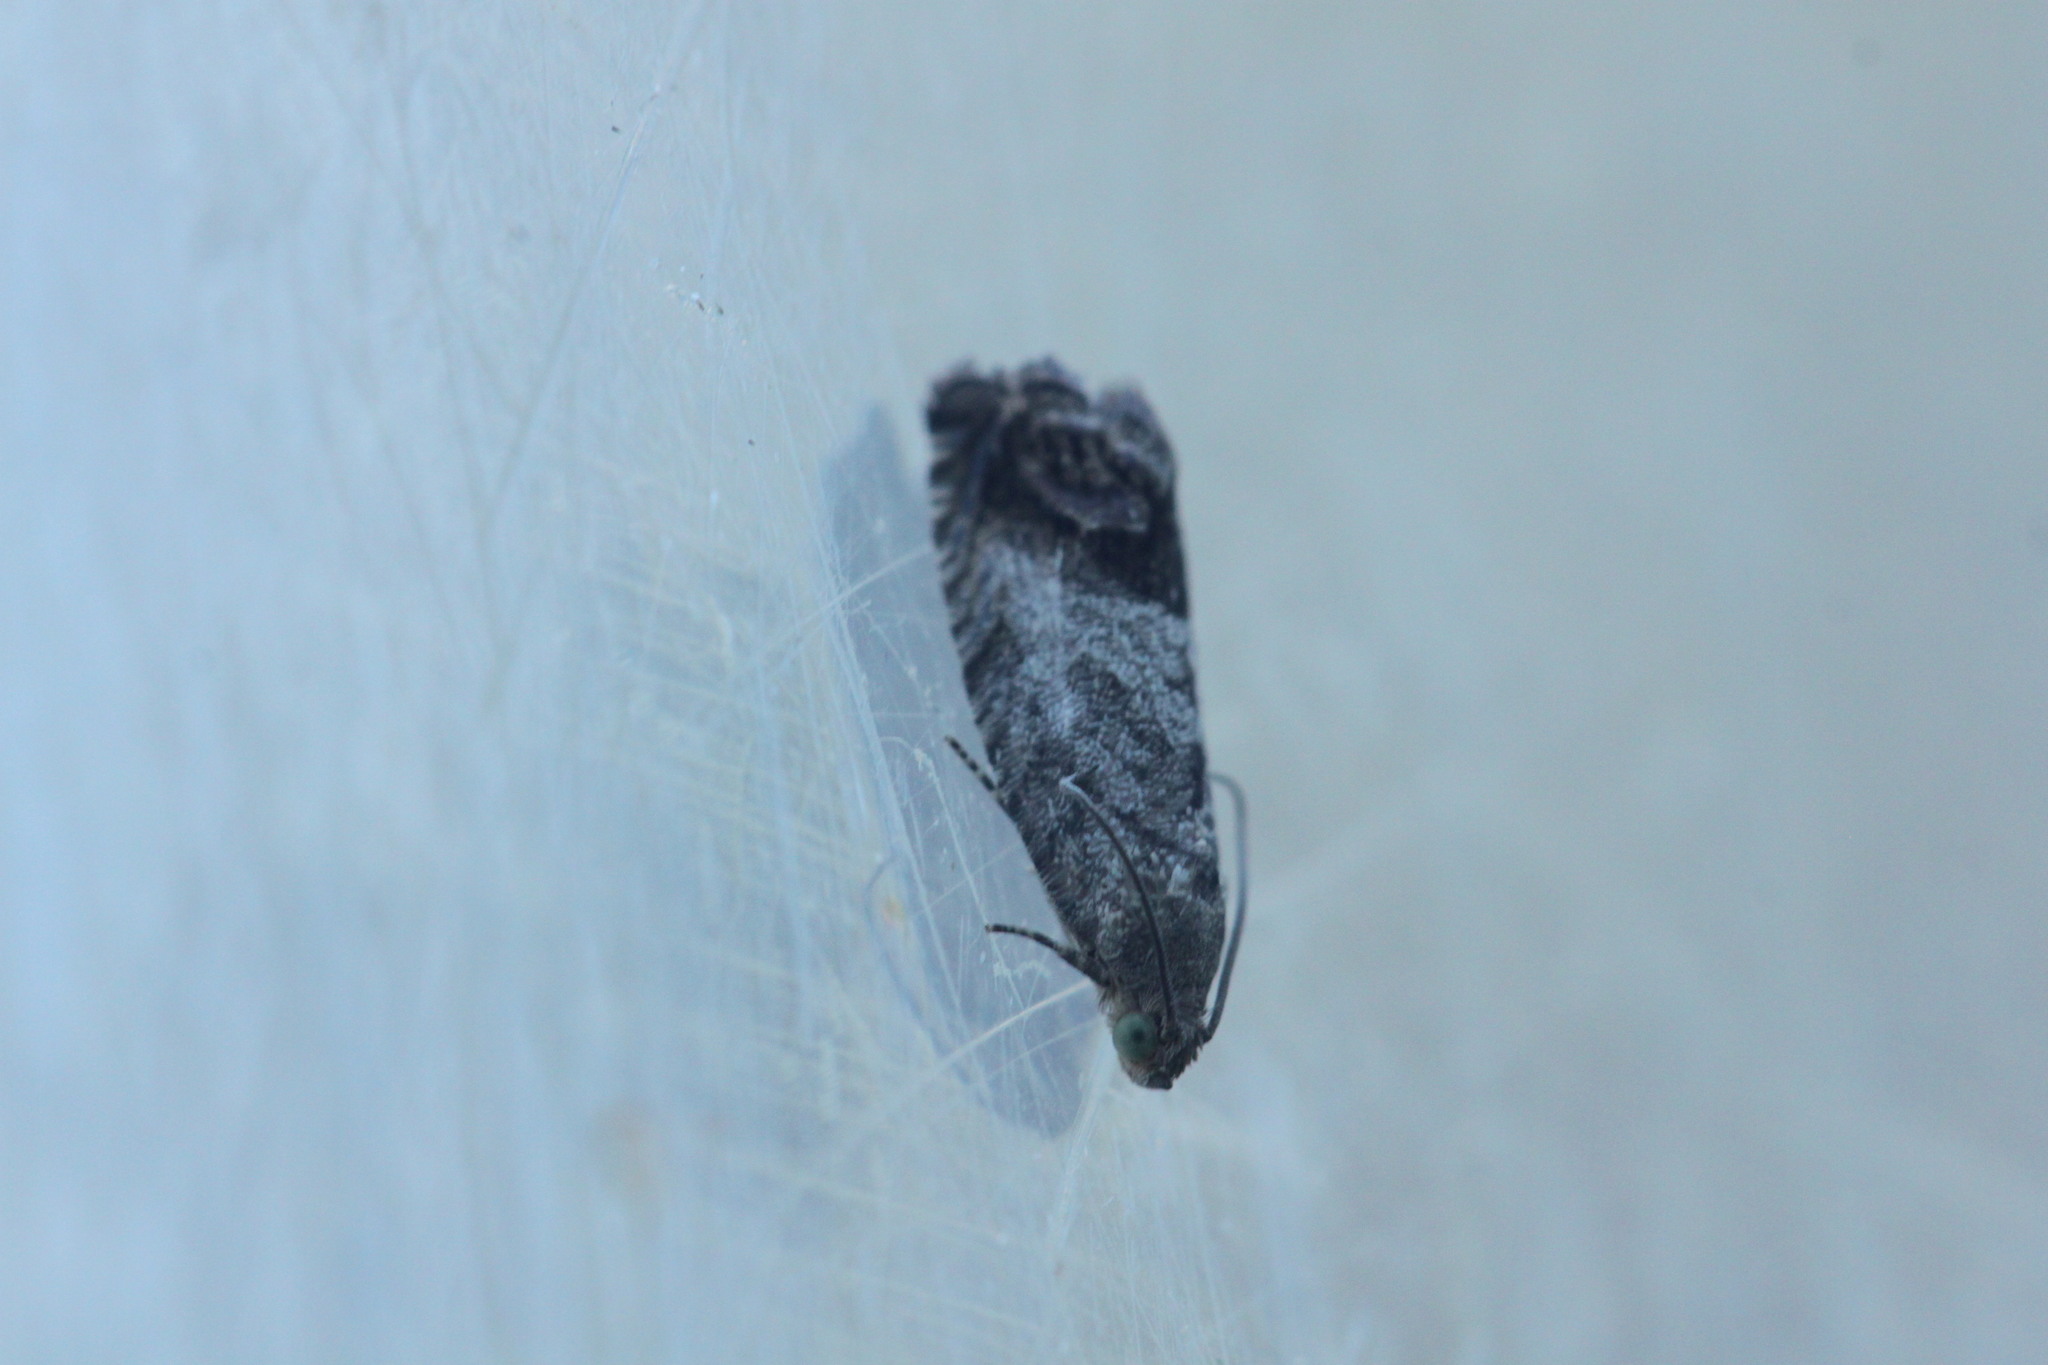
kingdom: Animalia
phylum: Arthropoda
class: Insecta
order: Lepidoptera
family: Tortricidae
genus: Cydia
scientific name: Cydia splendana
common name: De: kastanienwickler, eichenwickler es: oruga de la castaña fr: carpocapse des châtaignes it: cidia o tortrice tardiva delle castagne pt: bichado das castanhas gb: acorn moth, chestnut fruit tortrix
